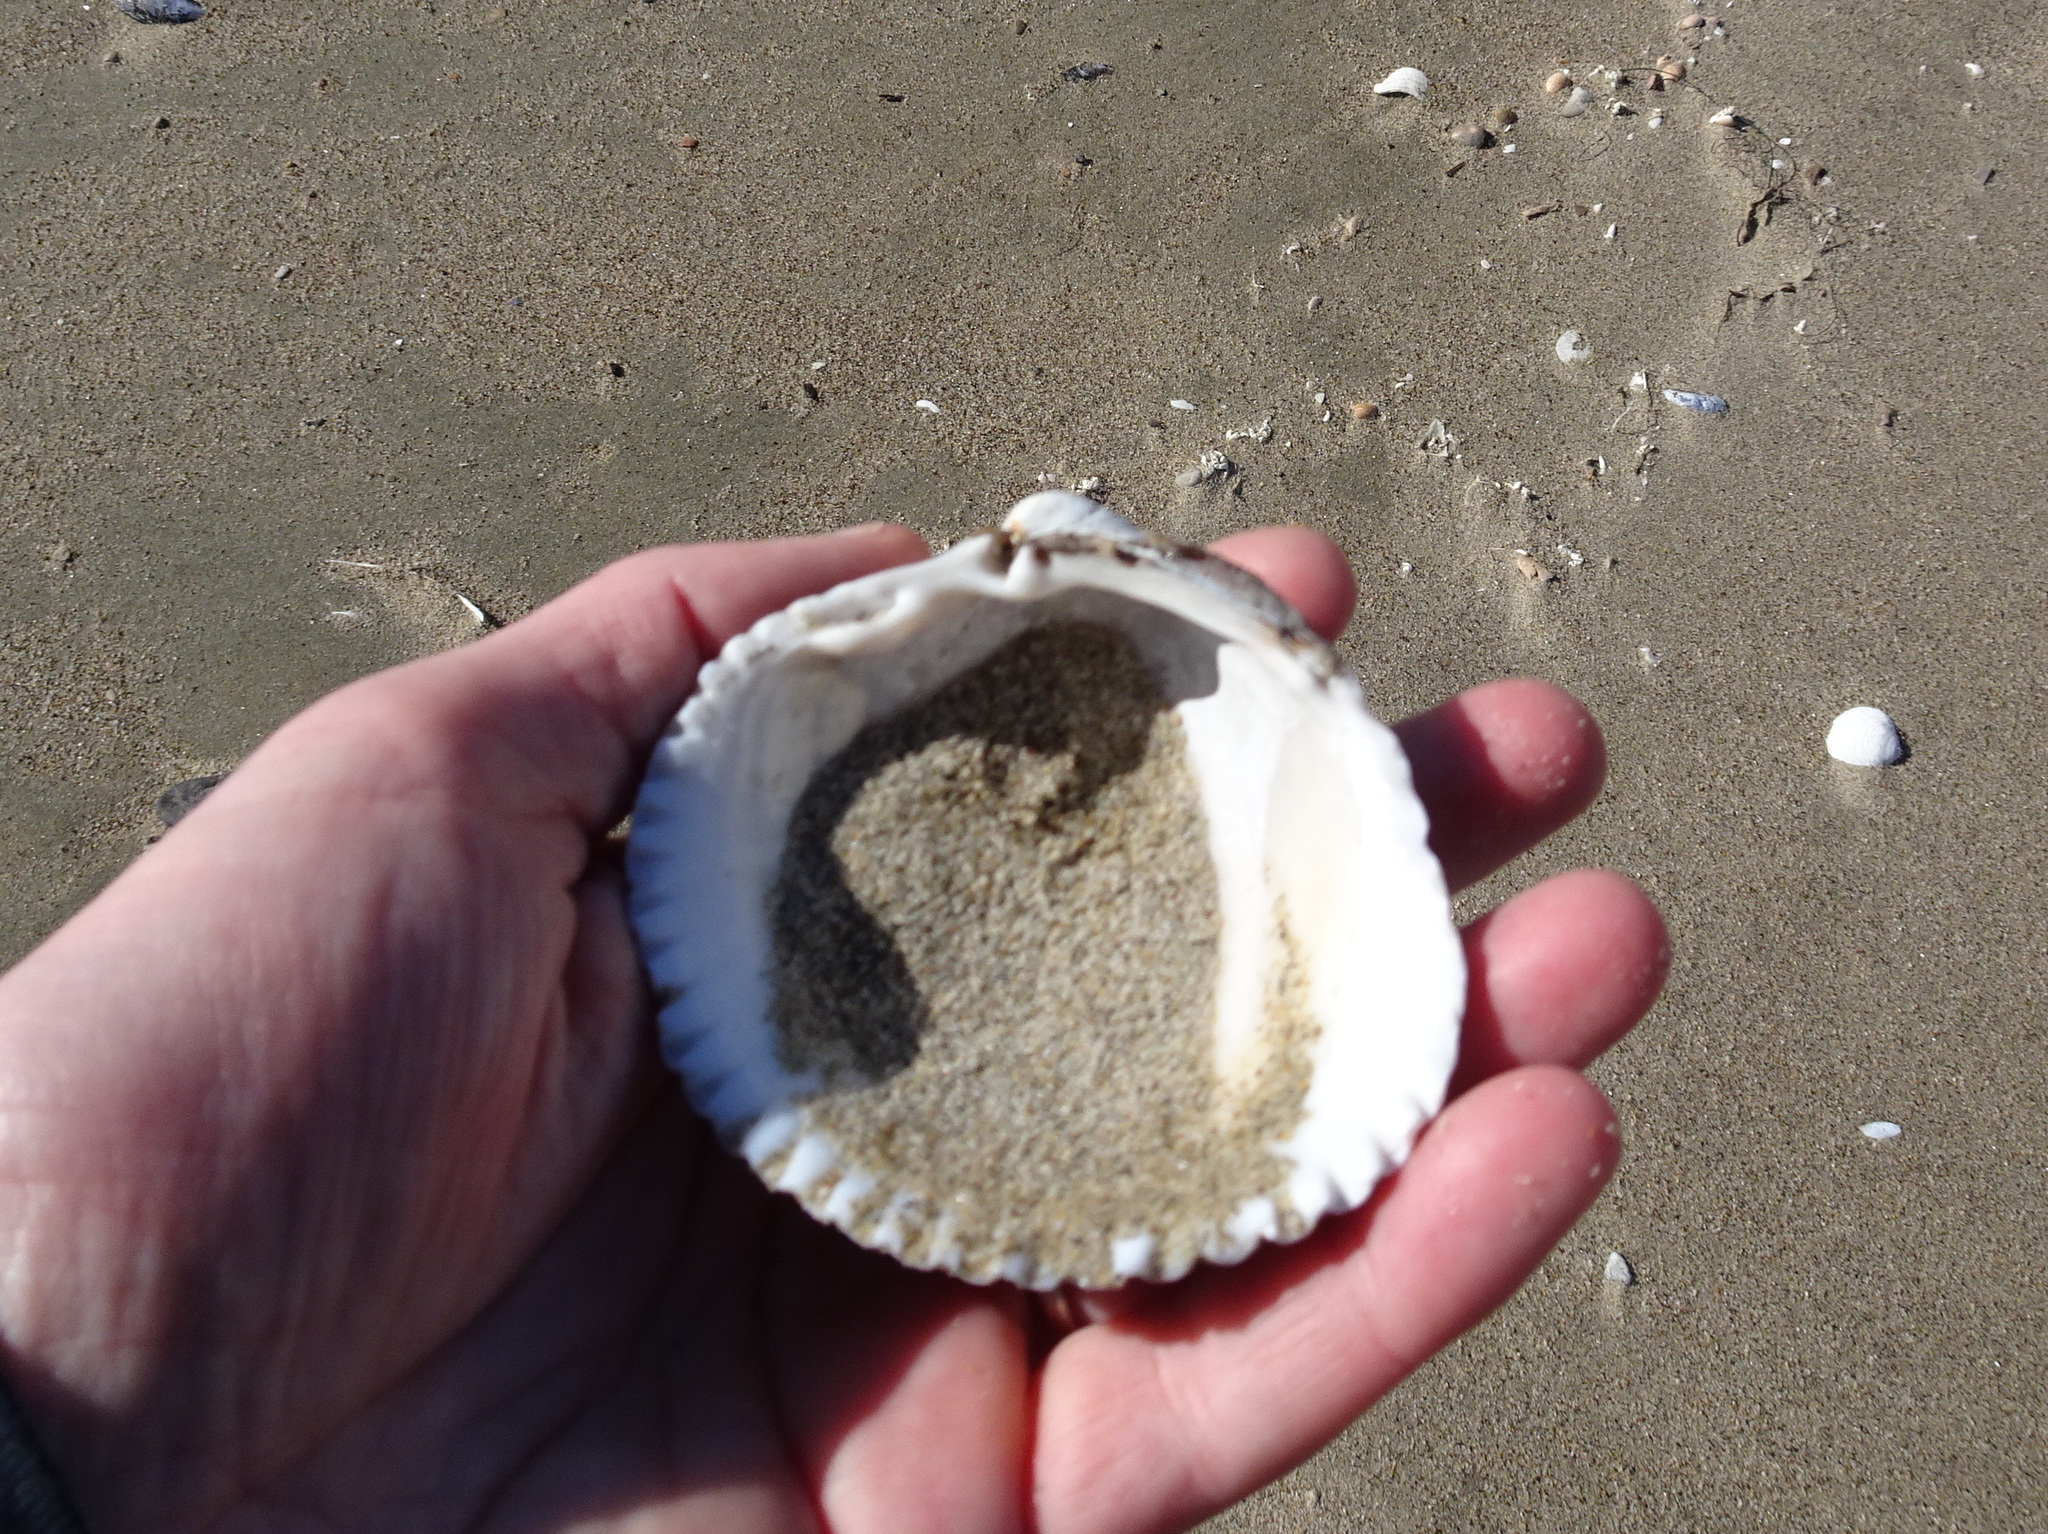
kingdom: Animalia
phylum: Mollusca
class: Bivalvia
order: Cardiida
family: Cardiidae
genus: Clinocardium
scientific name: Clinocardium nuttallii
